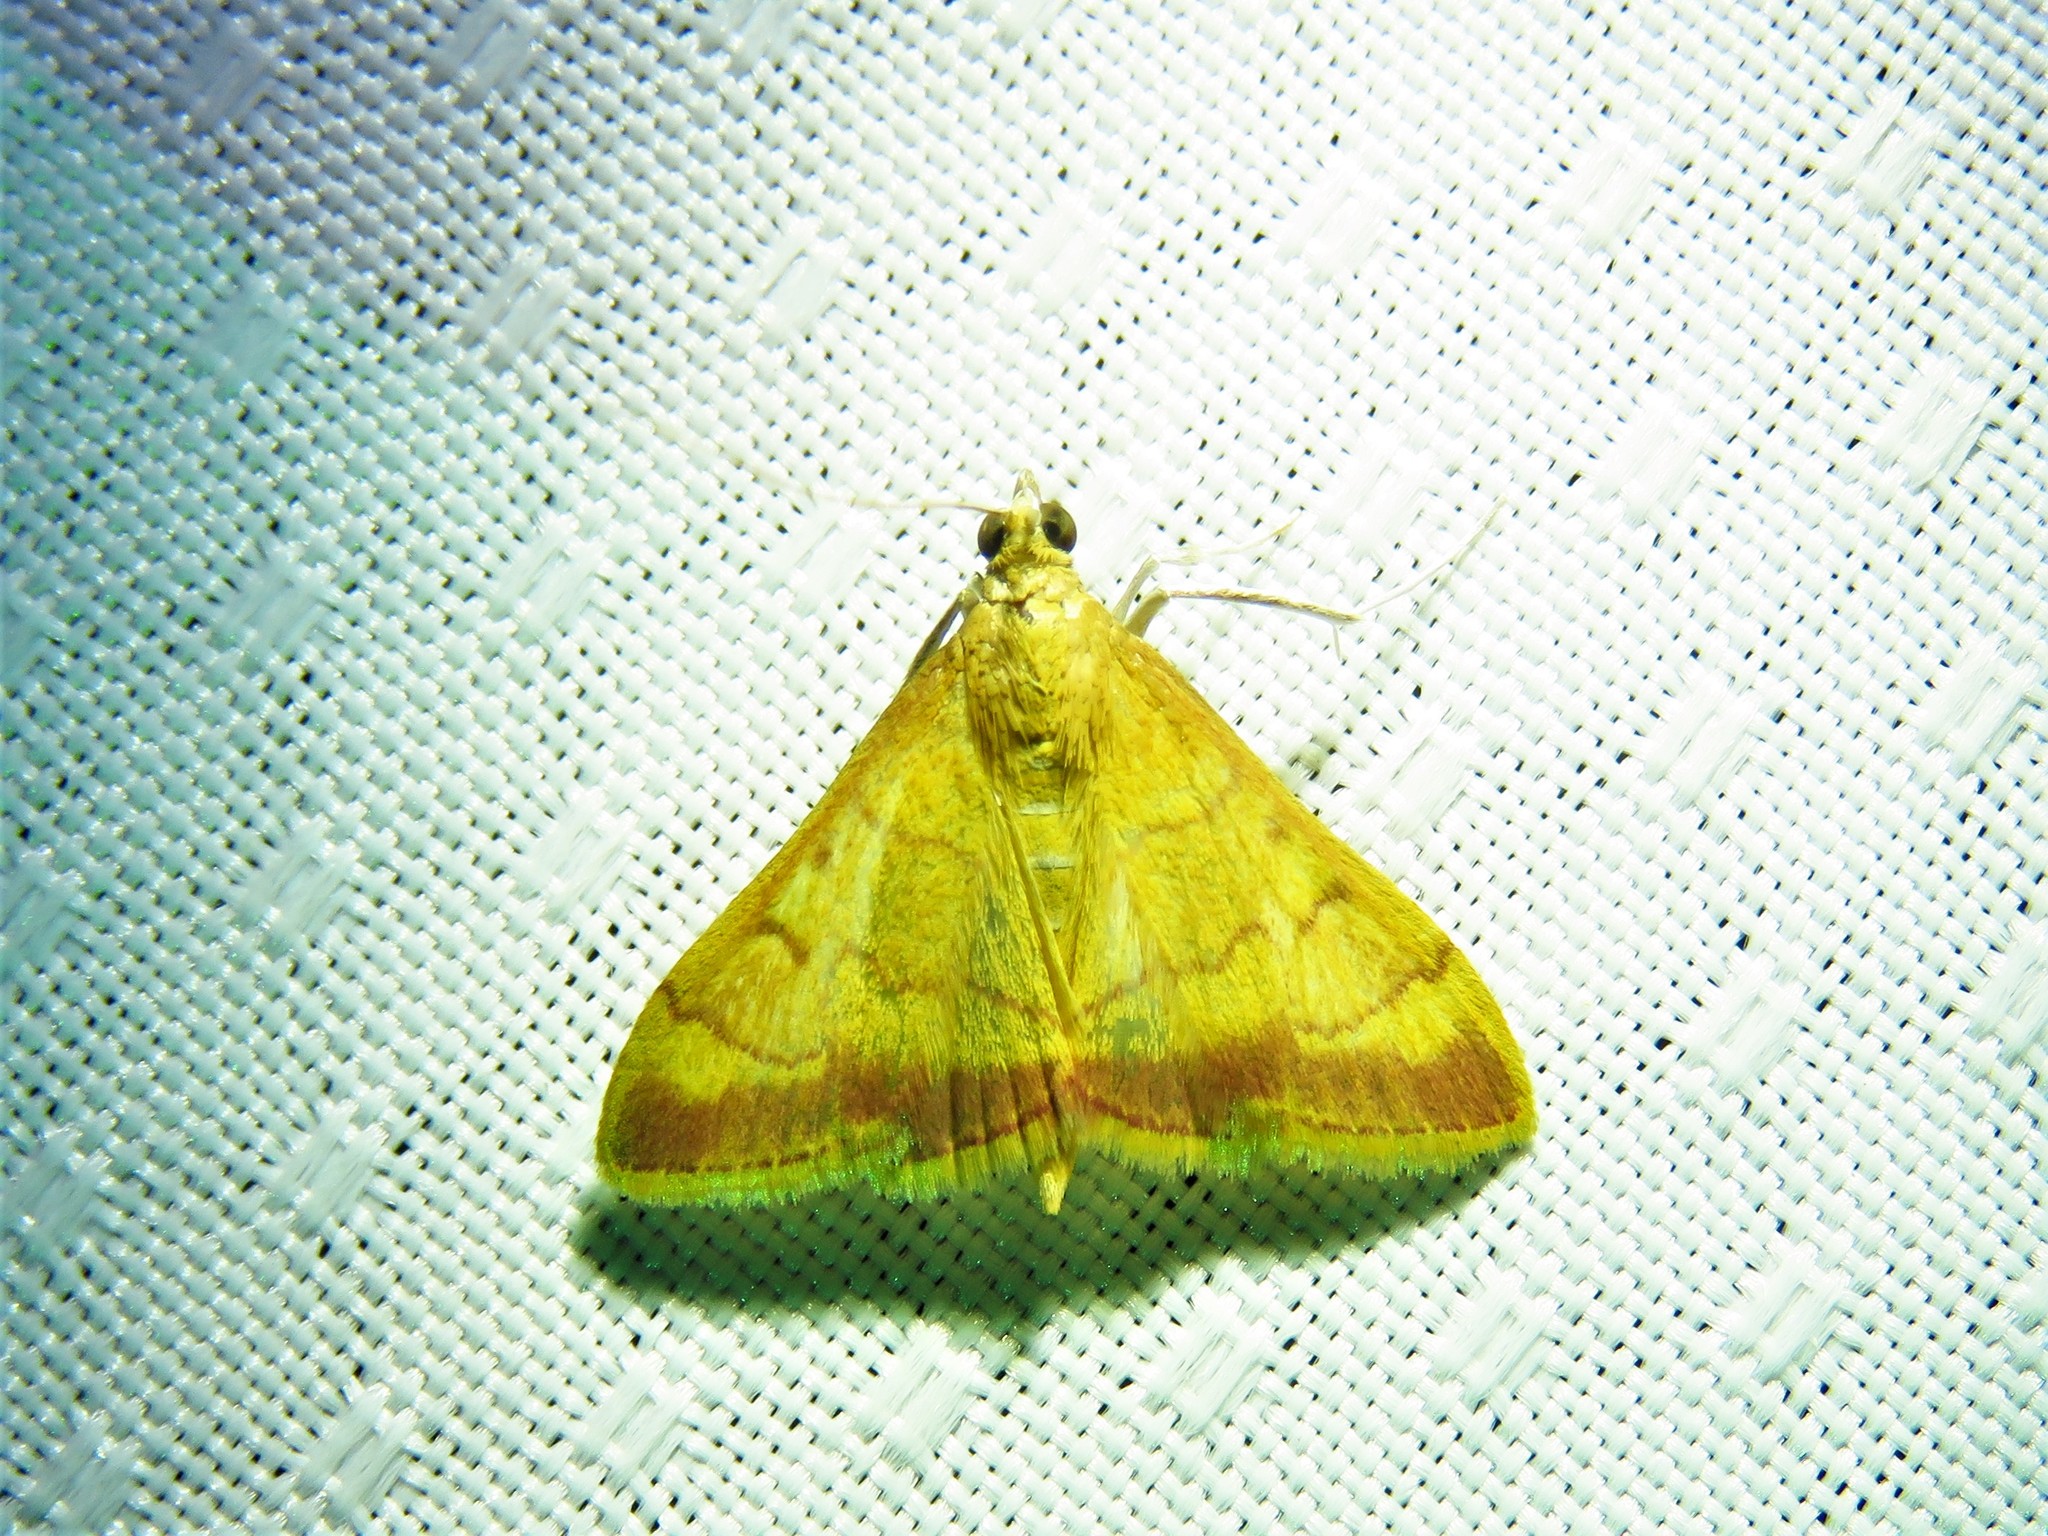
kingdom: Animalia
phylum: Arthropoda
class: Insecta
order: Lepidoptera
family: Crambidae
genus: Pyrausta
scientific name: Pyrausta pseudonythesalis
